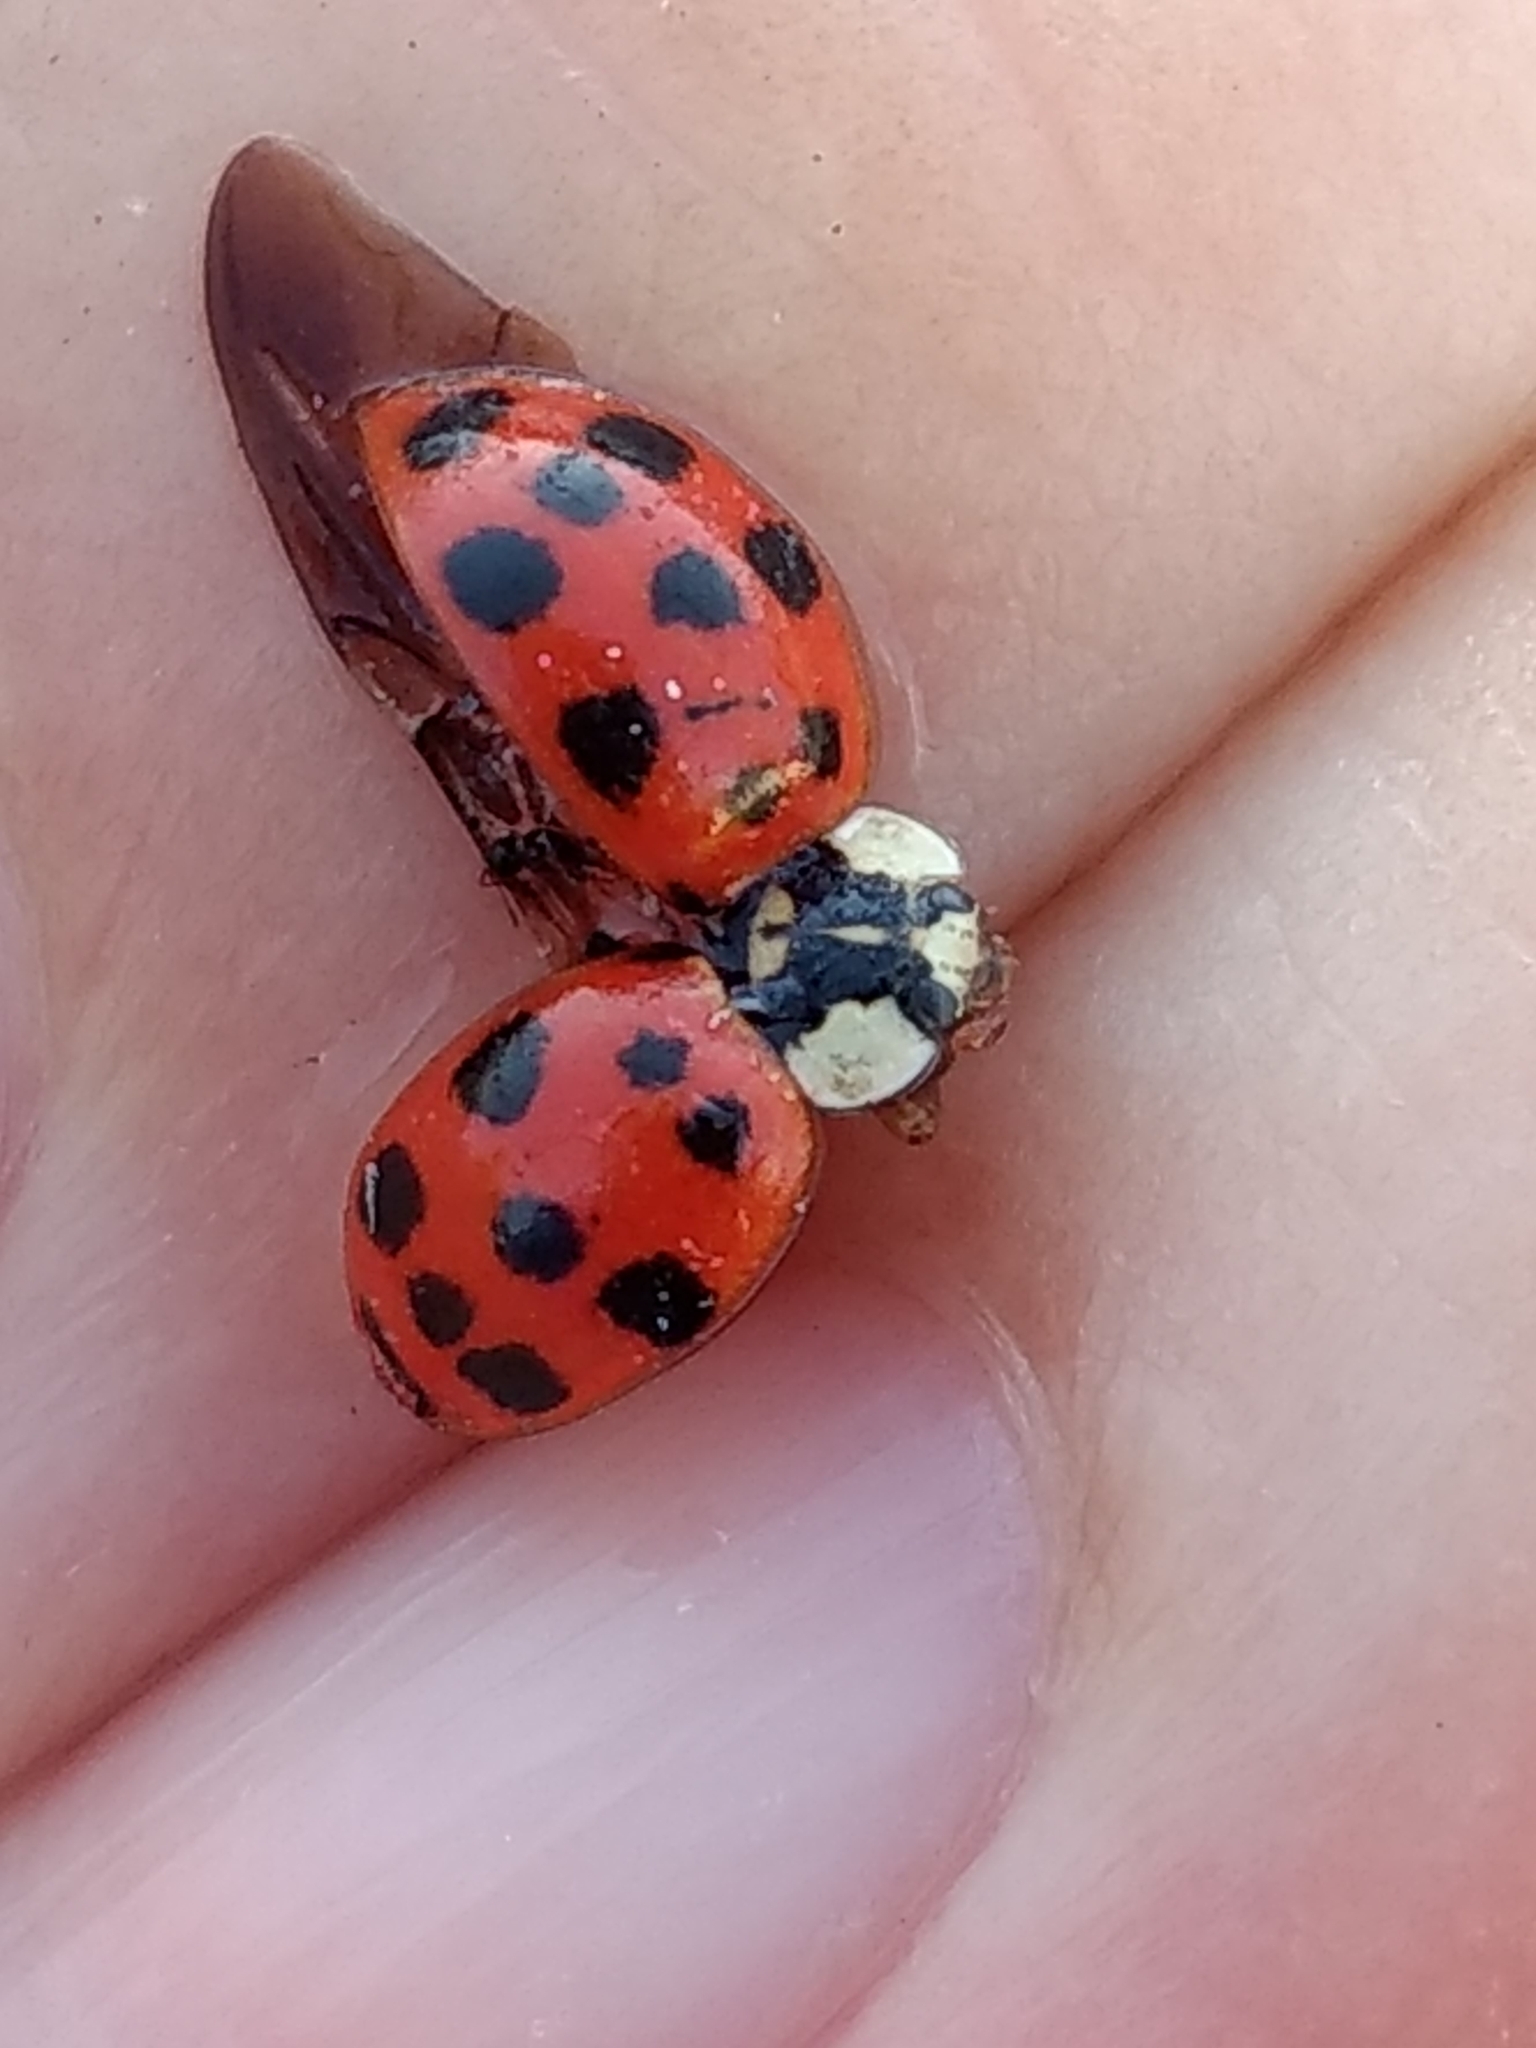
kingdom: Animalia
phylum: Arthropoda
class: Insecta
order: Coleoptera
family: Coccinellidae
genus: Harmonia
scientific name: Harmonia axyridis
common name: Harlequin ladybird
